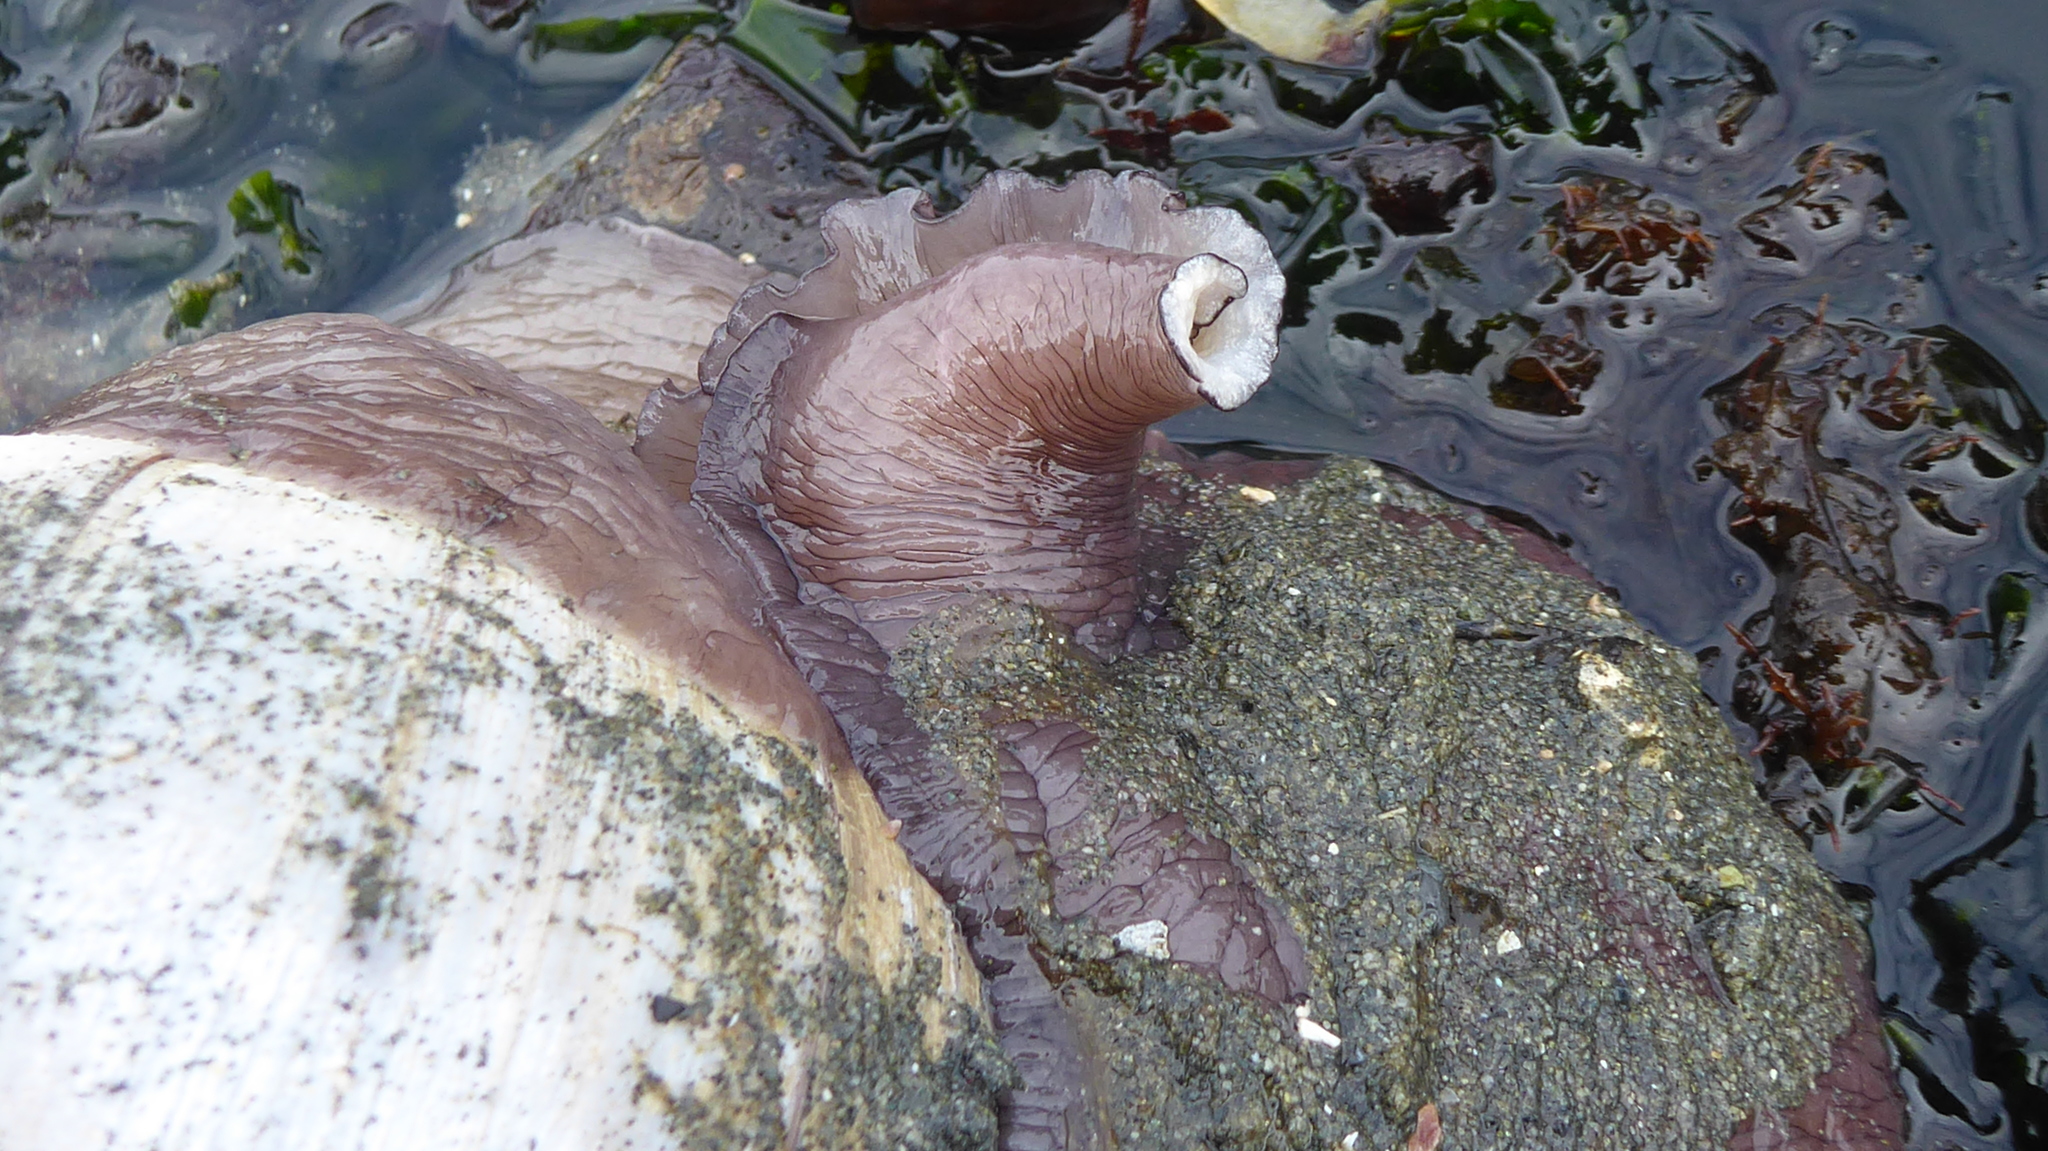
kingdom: Animalia
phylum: Mollusca
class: Gastropoda
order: Littorinimorpha
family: Naticidae
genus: Neverita
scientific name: Neverita lewisii
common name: Lewis' moonsnail
